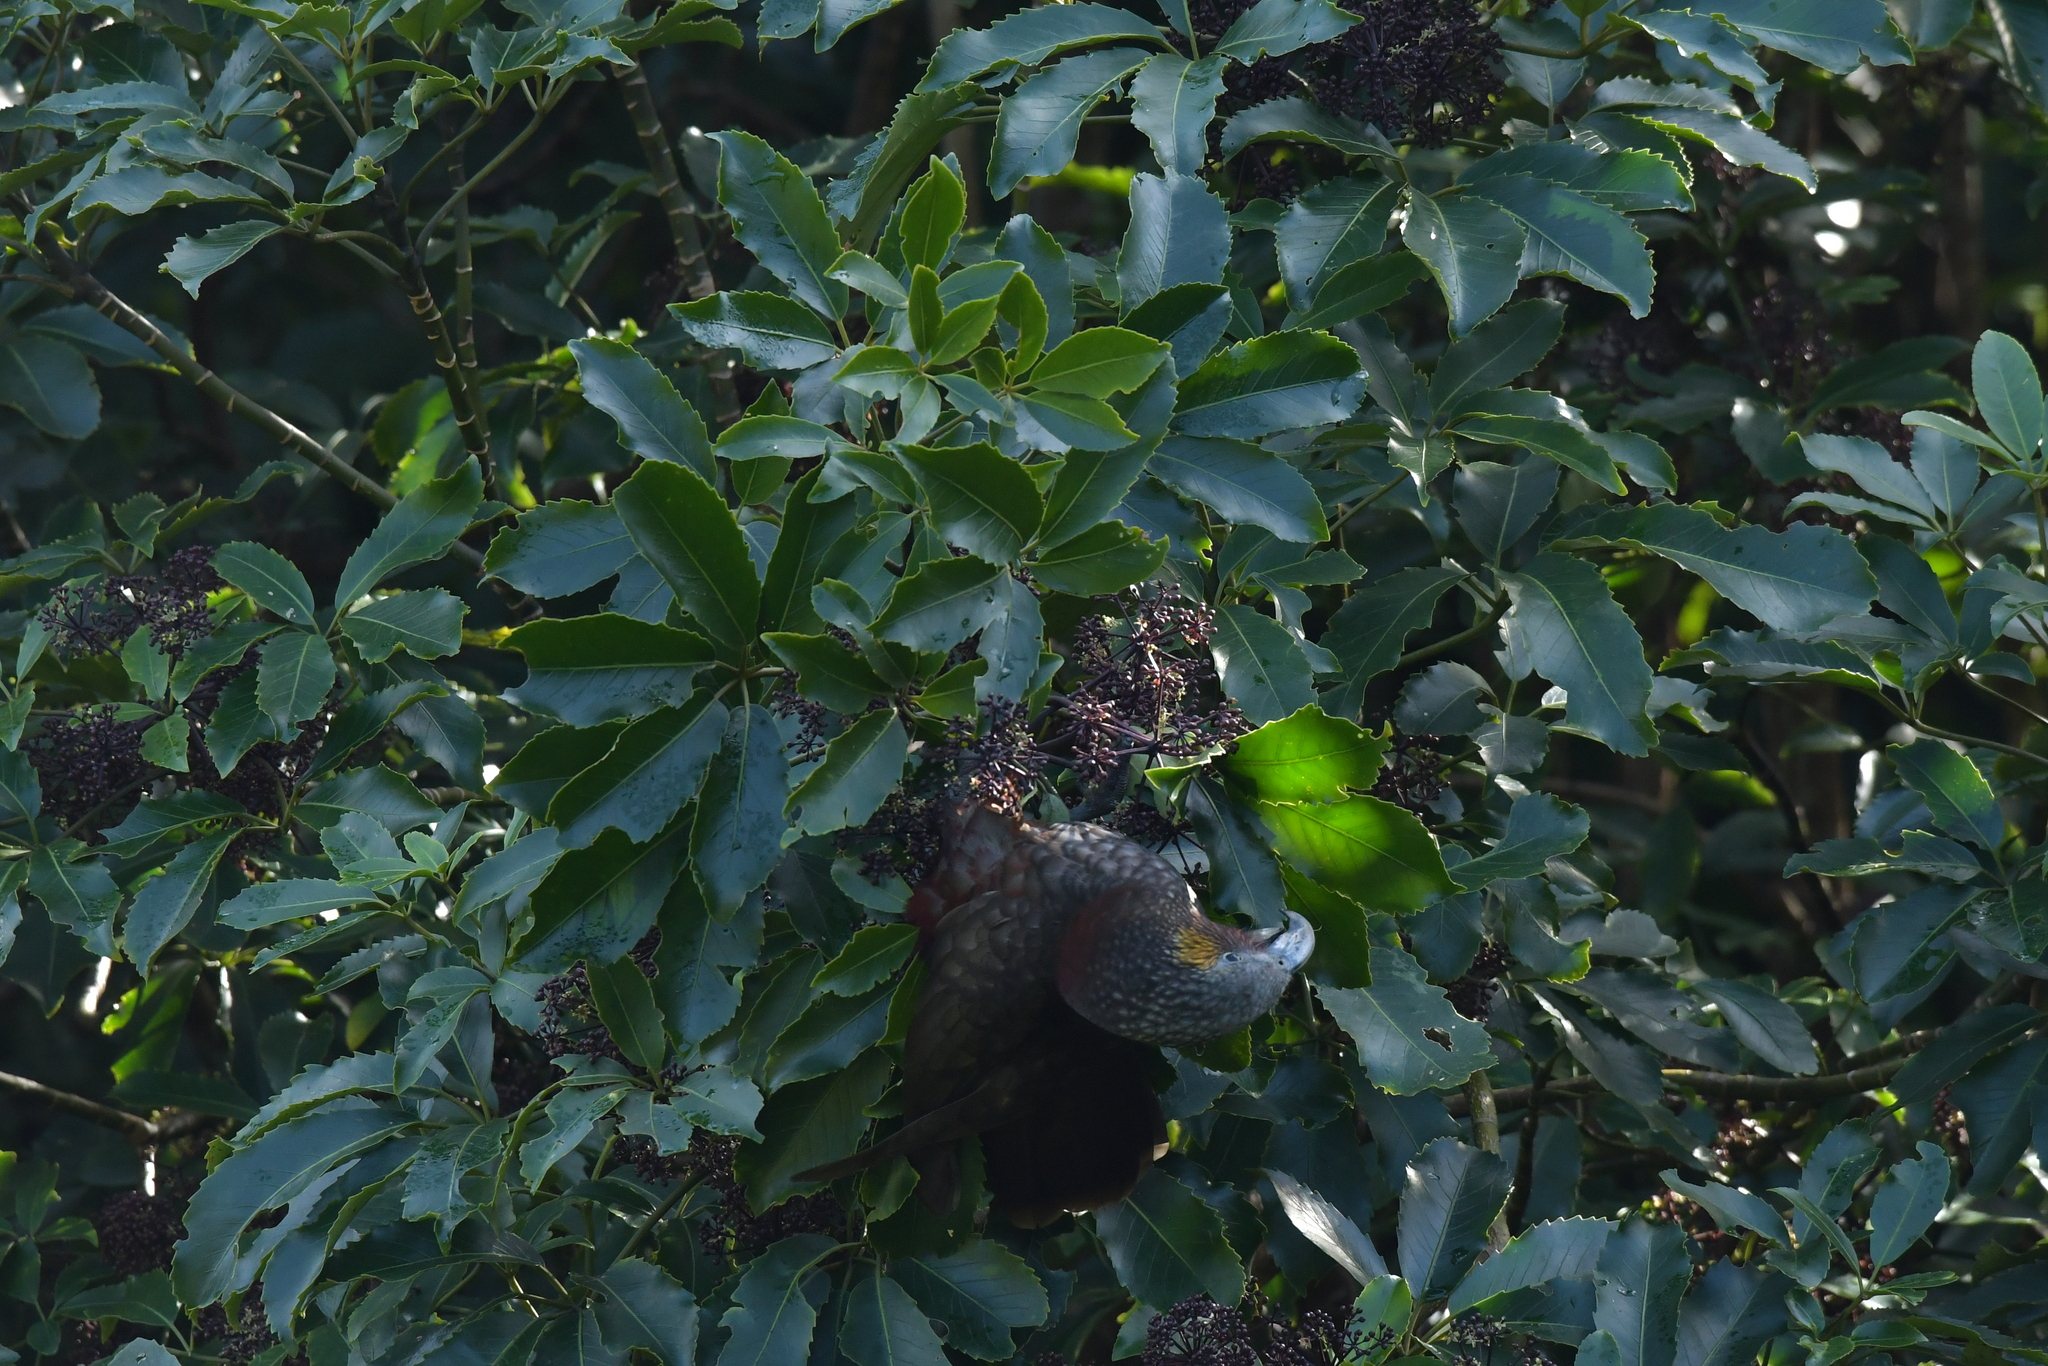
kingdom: Animalia
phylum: Chordata
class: Aves
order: Psittaciformes
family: Psittacidae
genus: Nestor
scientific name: Nestor meridionalis
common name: New zealand kaka
